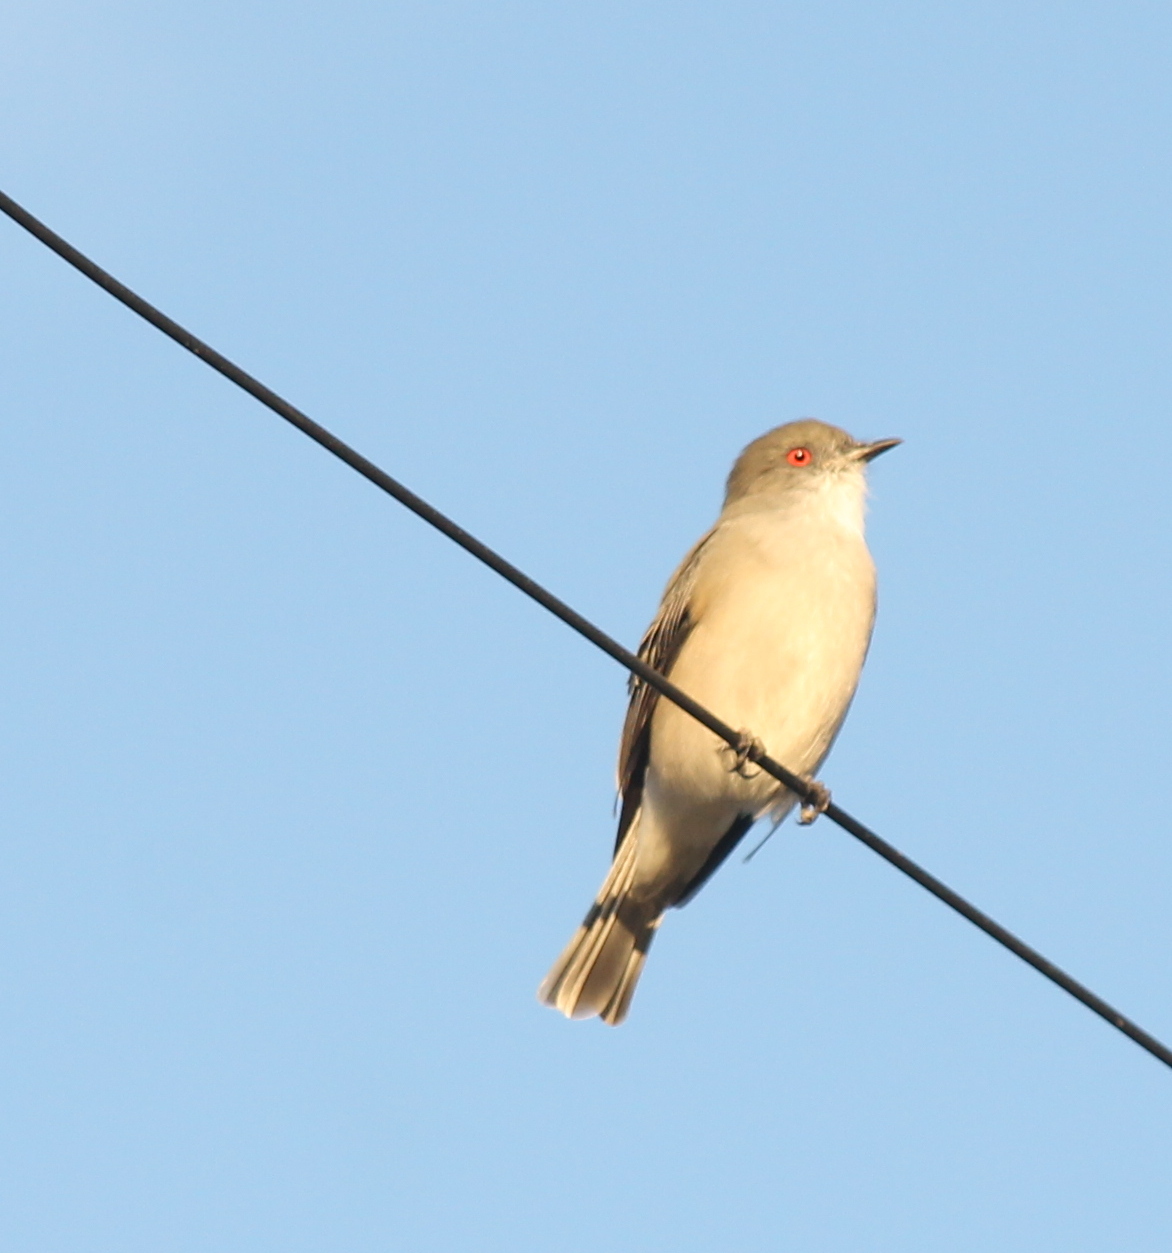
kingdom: Animalia
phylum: Chordata
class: Aves
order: Passeriformes
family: Tyrannidae
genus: Xolmis
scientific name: Xolmis pyrope
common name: Fire-eyed diucon
